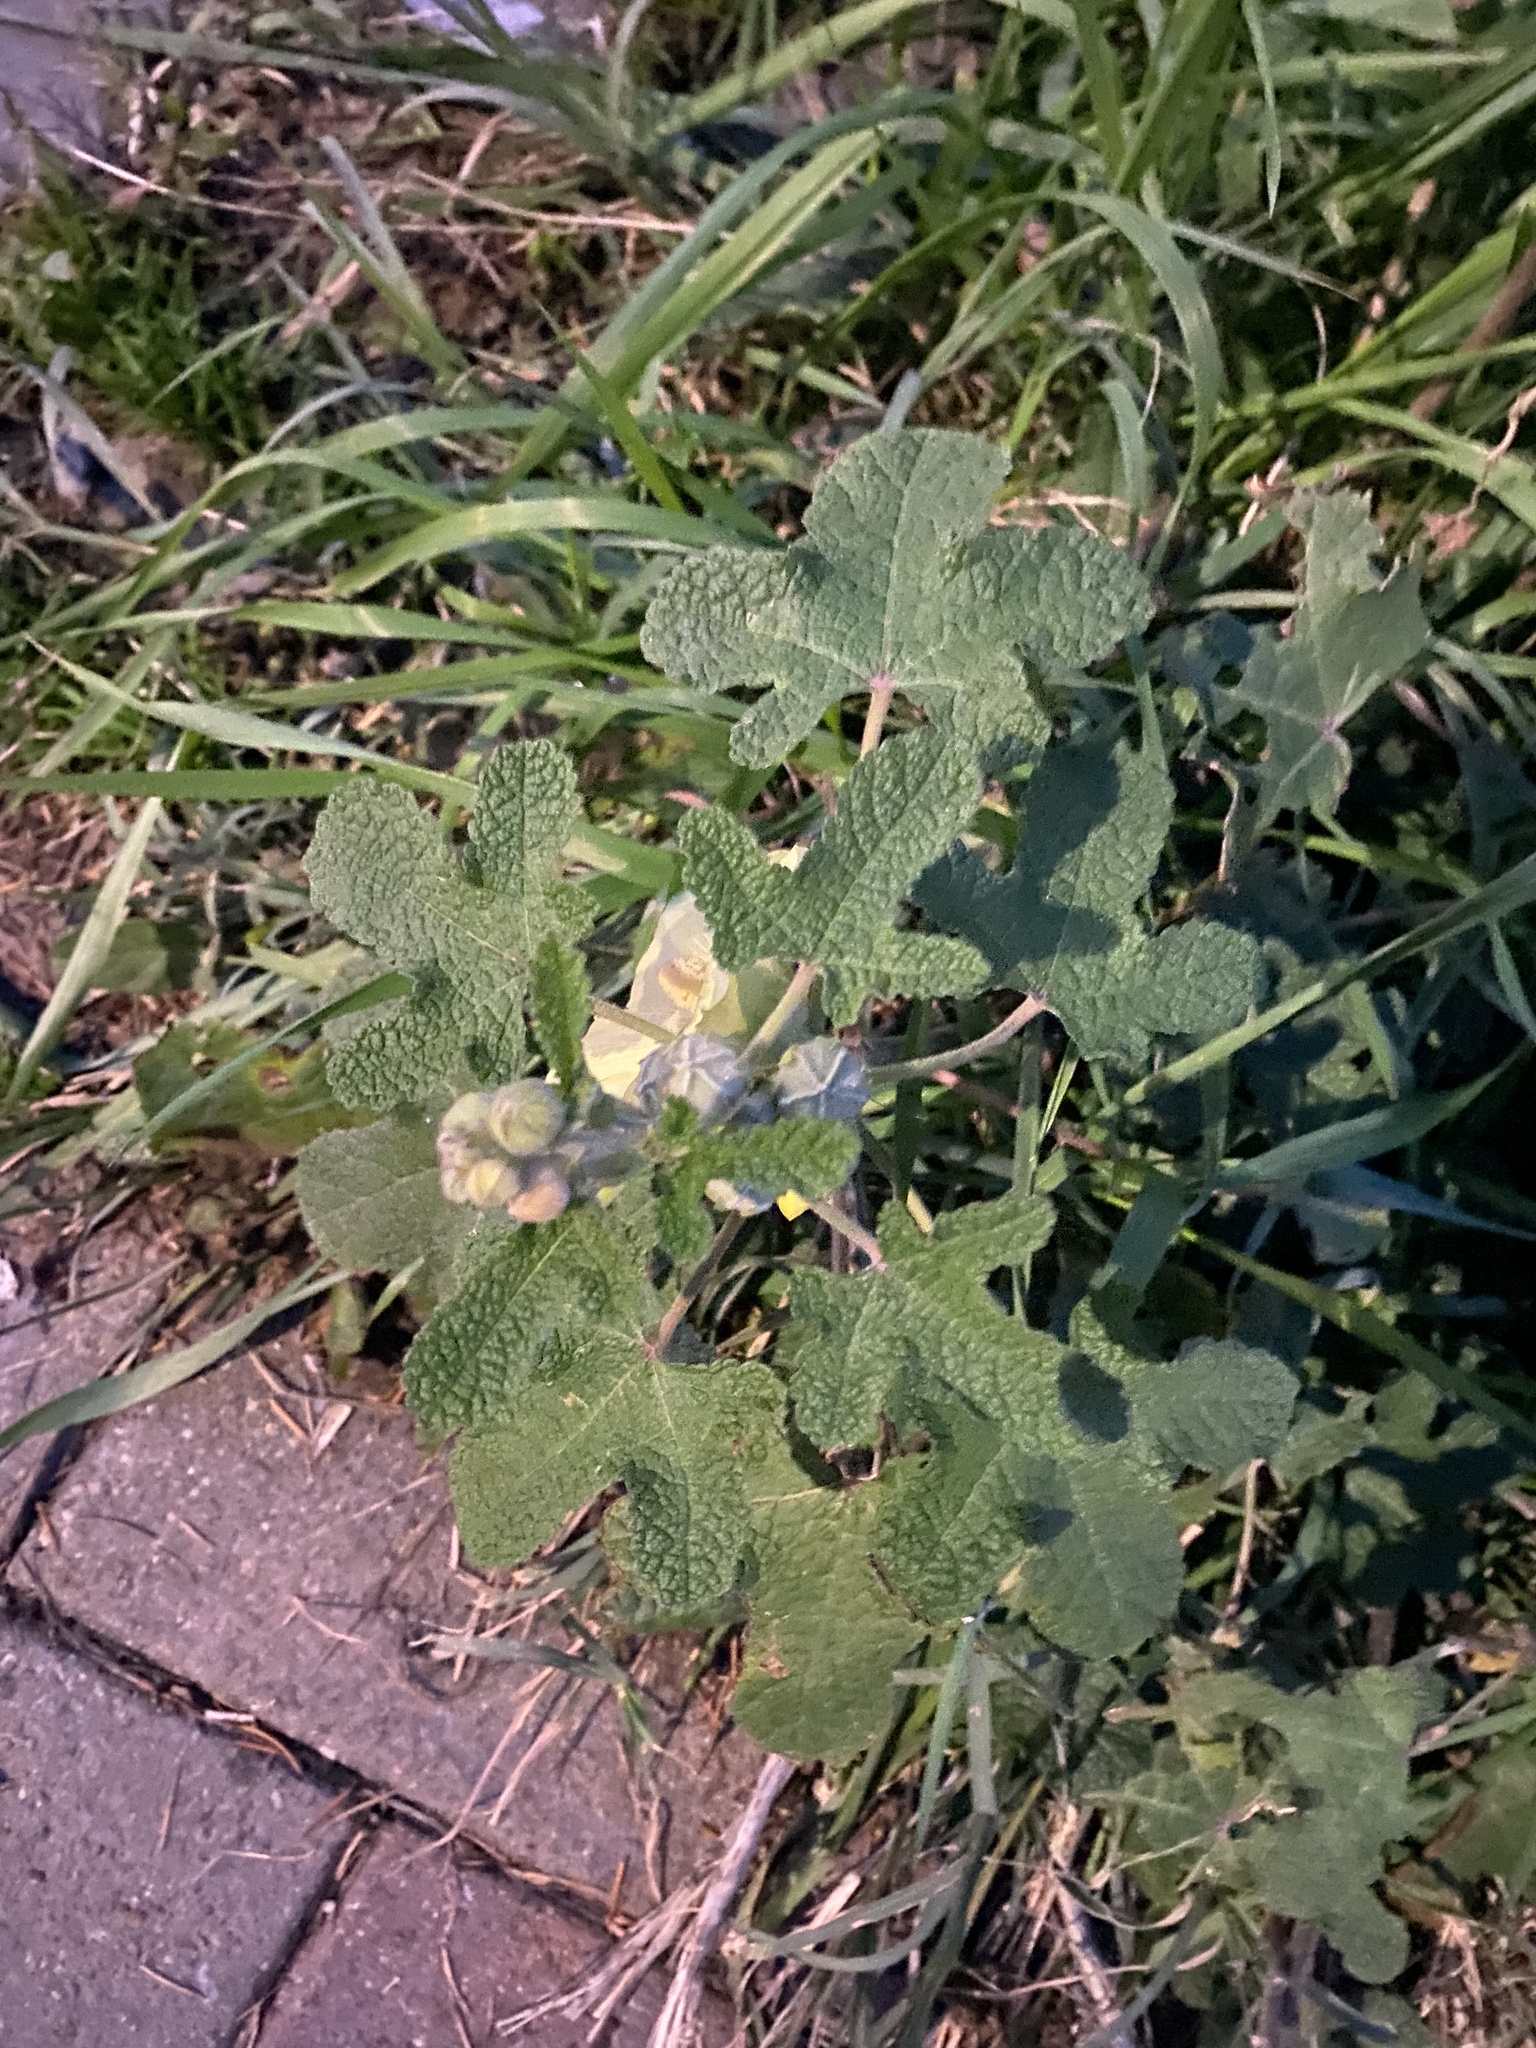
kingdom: Plantae
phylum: Tracheophyta
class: Magnoliopsida
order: Malvales
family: Malvaceae
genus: Alcea
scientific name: Alcea rugosa
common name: Russian hollyhock
